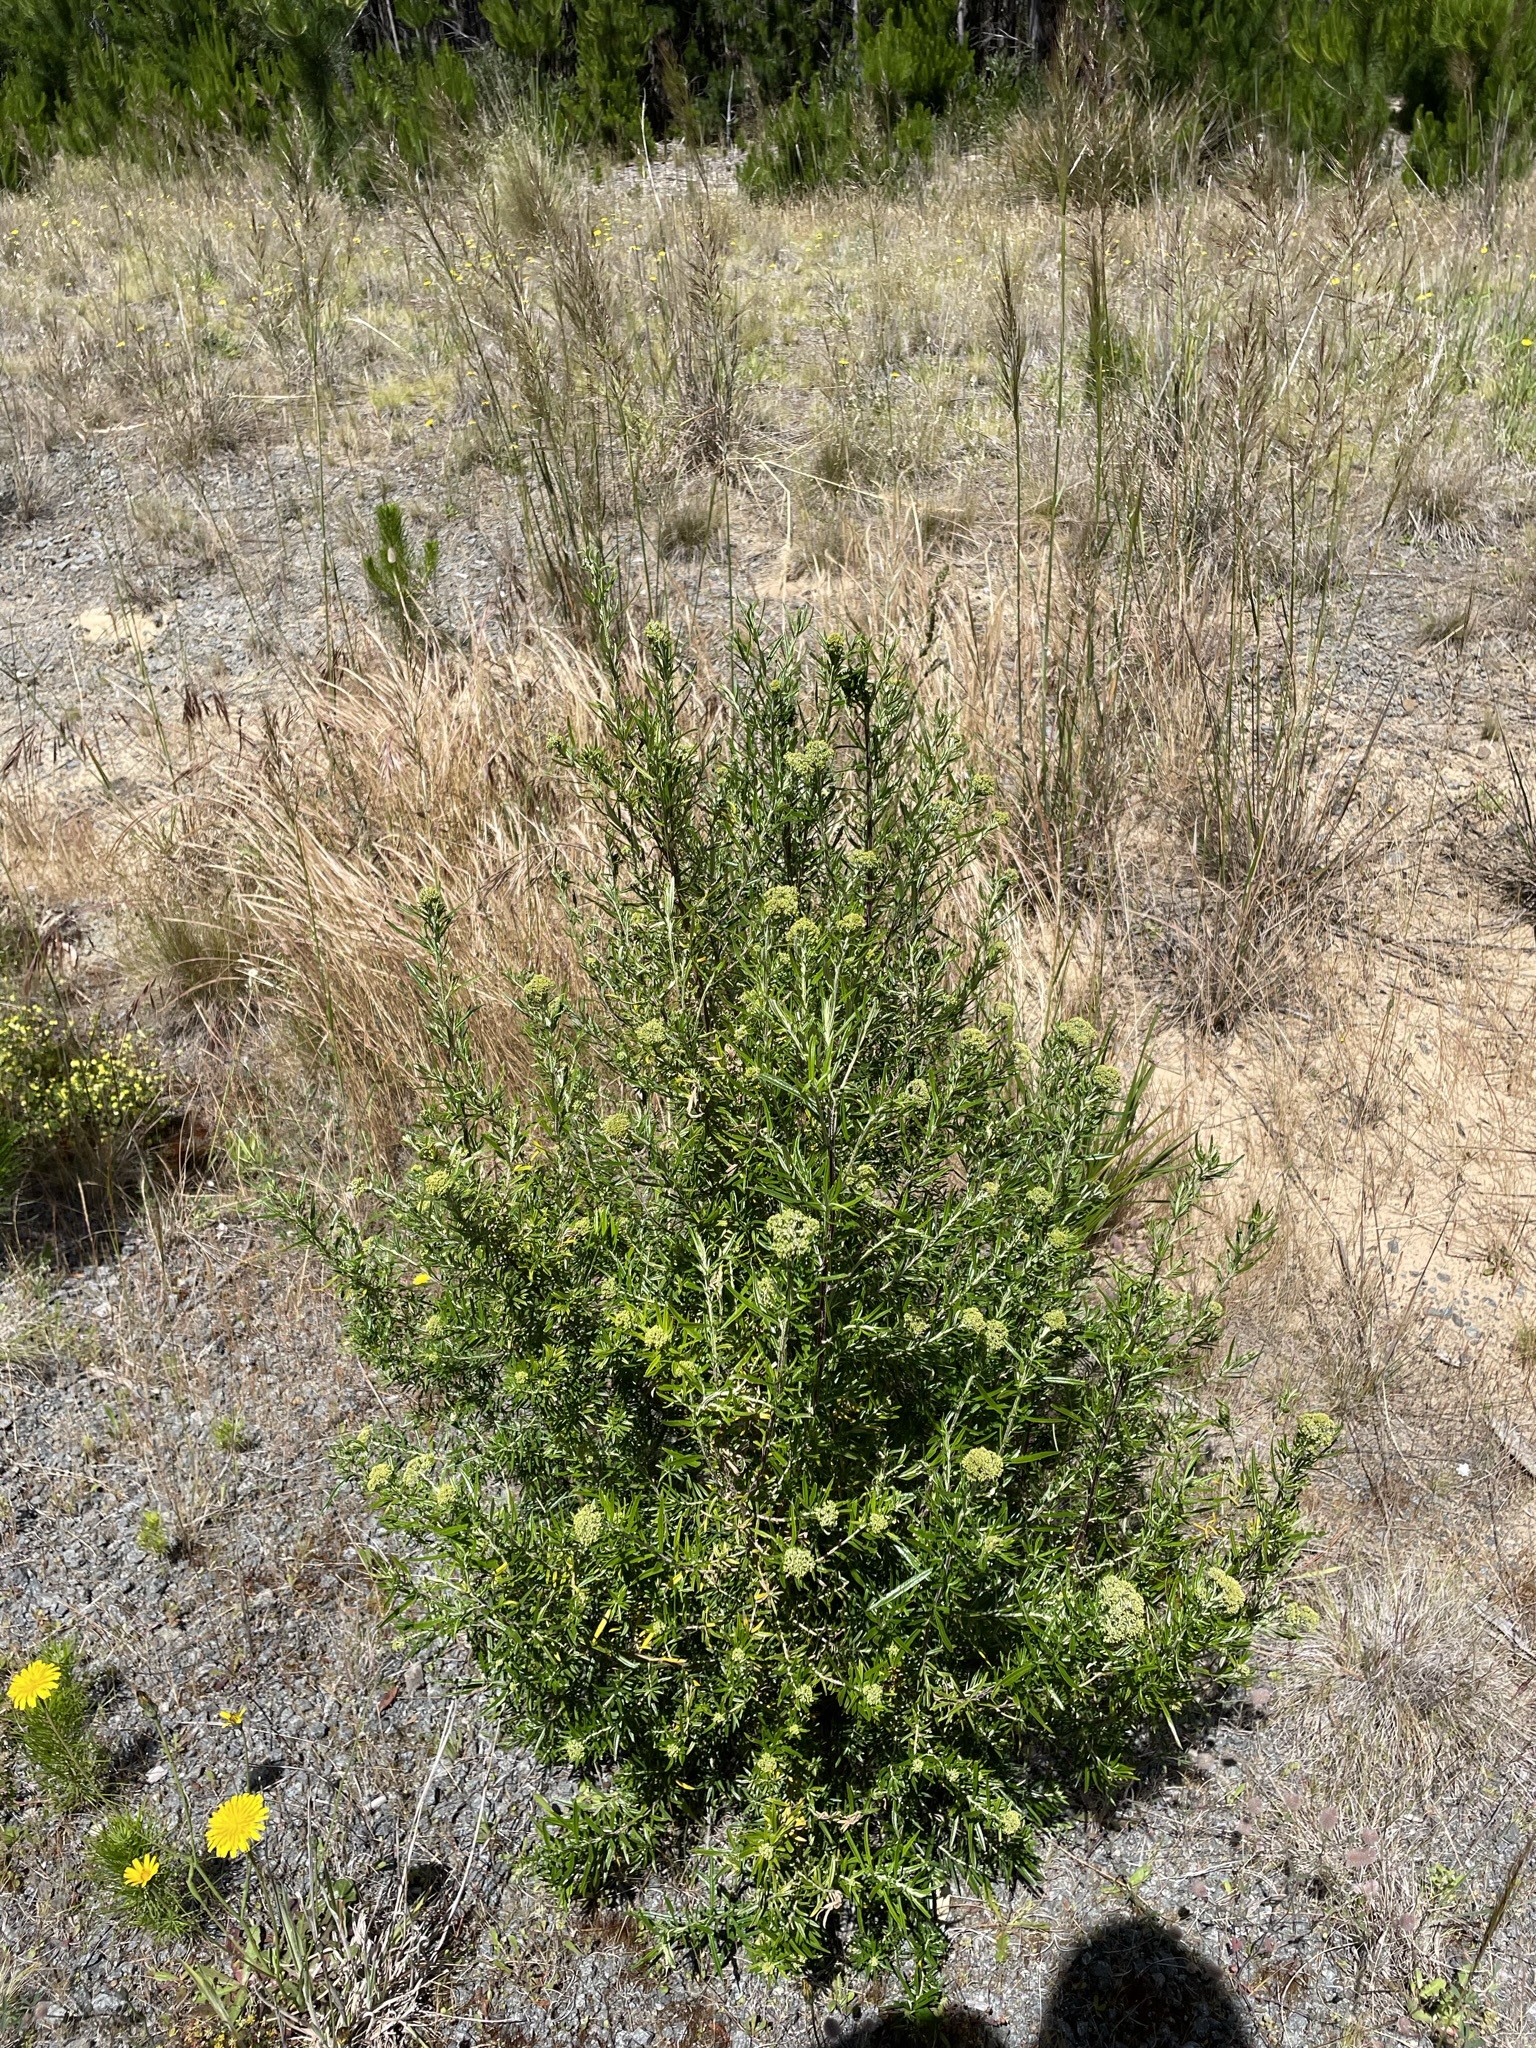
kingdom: Plantae
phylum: Tracheophyta
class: Magnoliopsida
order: Asterales
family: Asteraceae
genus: Ozothamnus
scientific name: Ozothamnus ferrugineus
